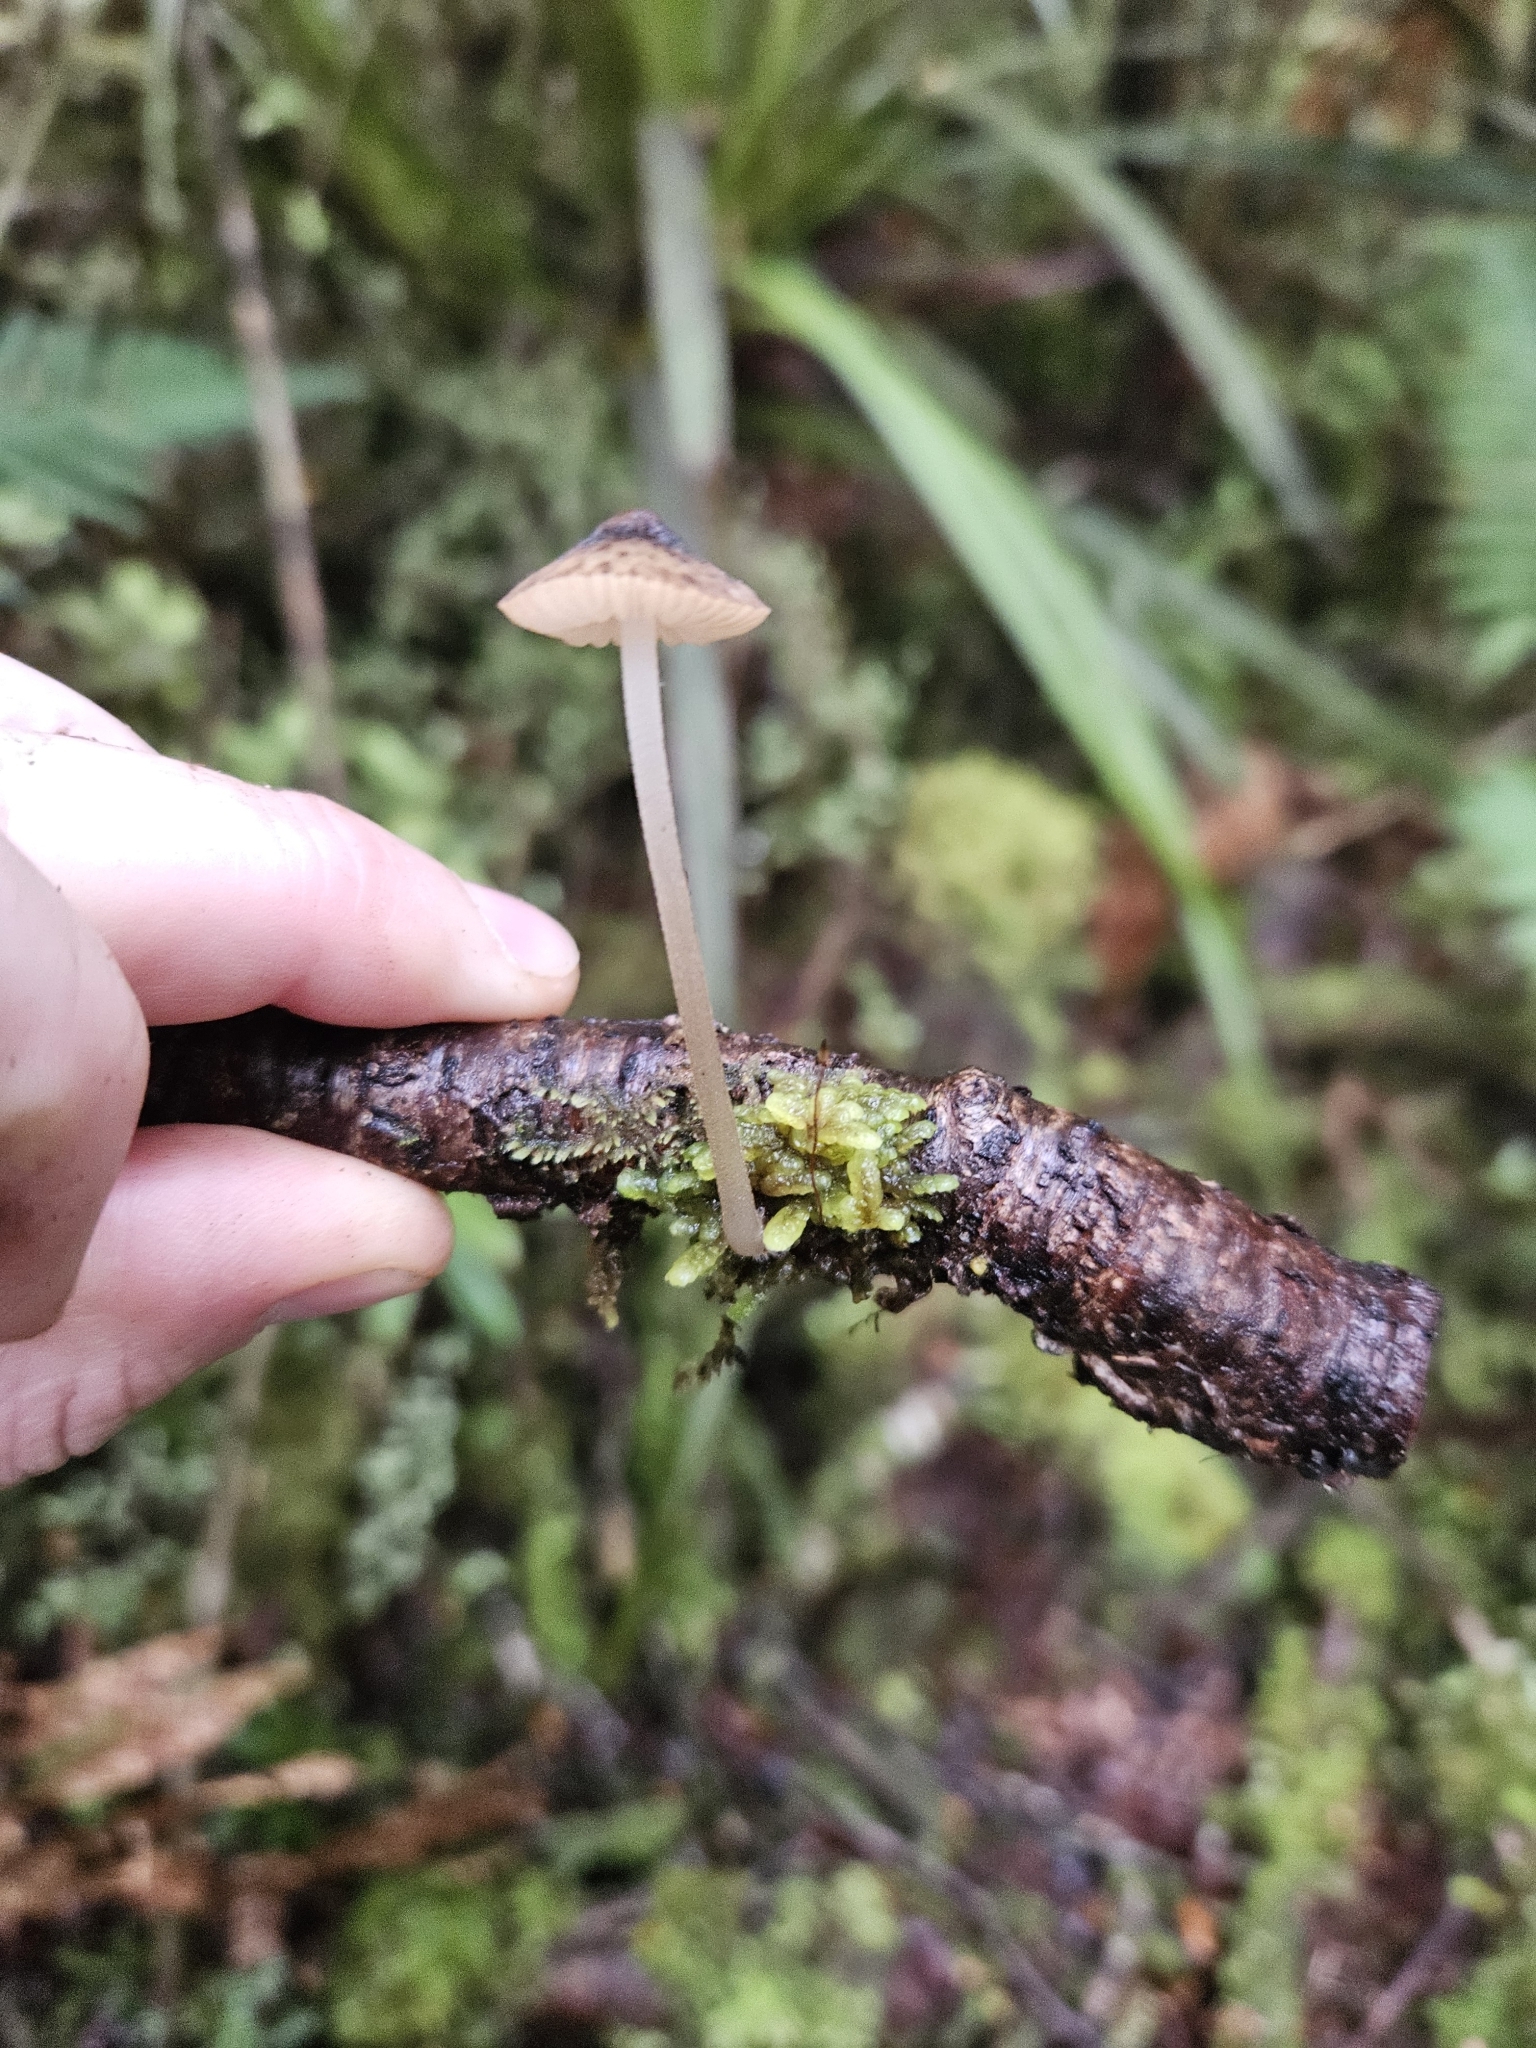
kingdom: Fungi
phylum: Basidiomycota
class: Agaricomycetes
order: Agaricales
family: Porotheleaceae
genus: Pseudohydropus
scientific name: Pseudohydropus parafunebris
